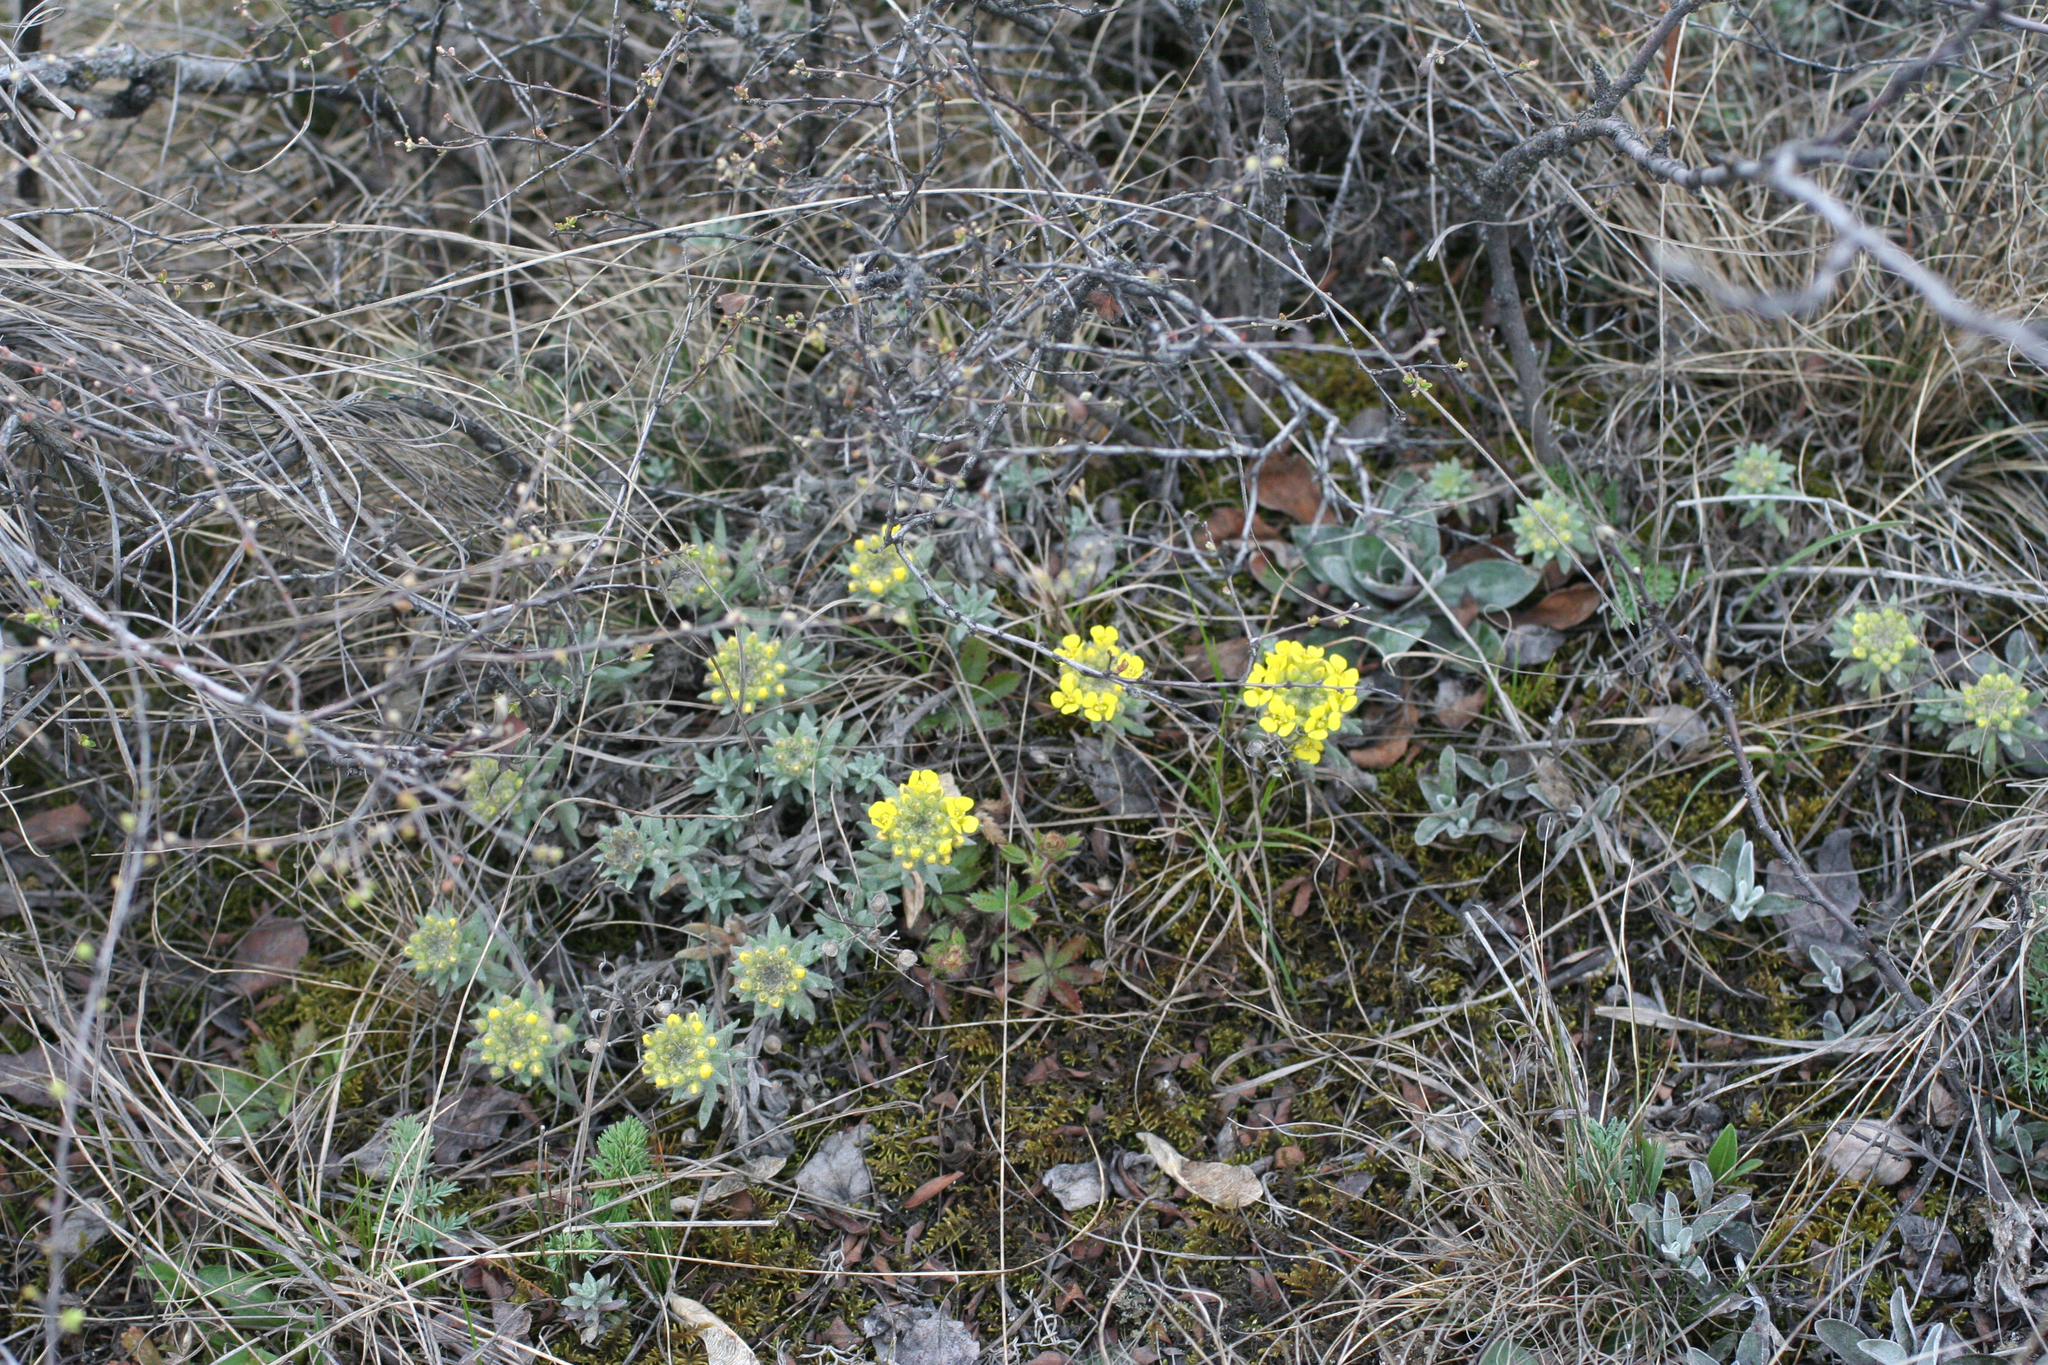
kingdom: Plantae
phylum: Tracheophyta
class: Magnoliopsida
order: Brassicales
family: Brassicaceae
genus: Alyssum
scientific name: Alyssum lenense
